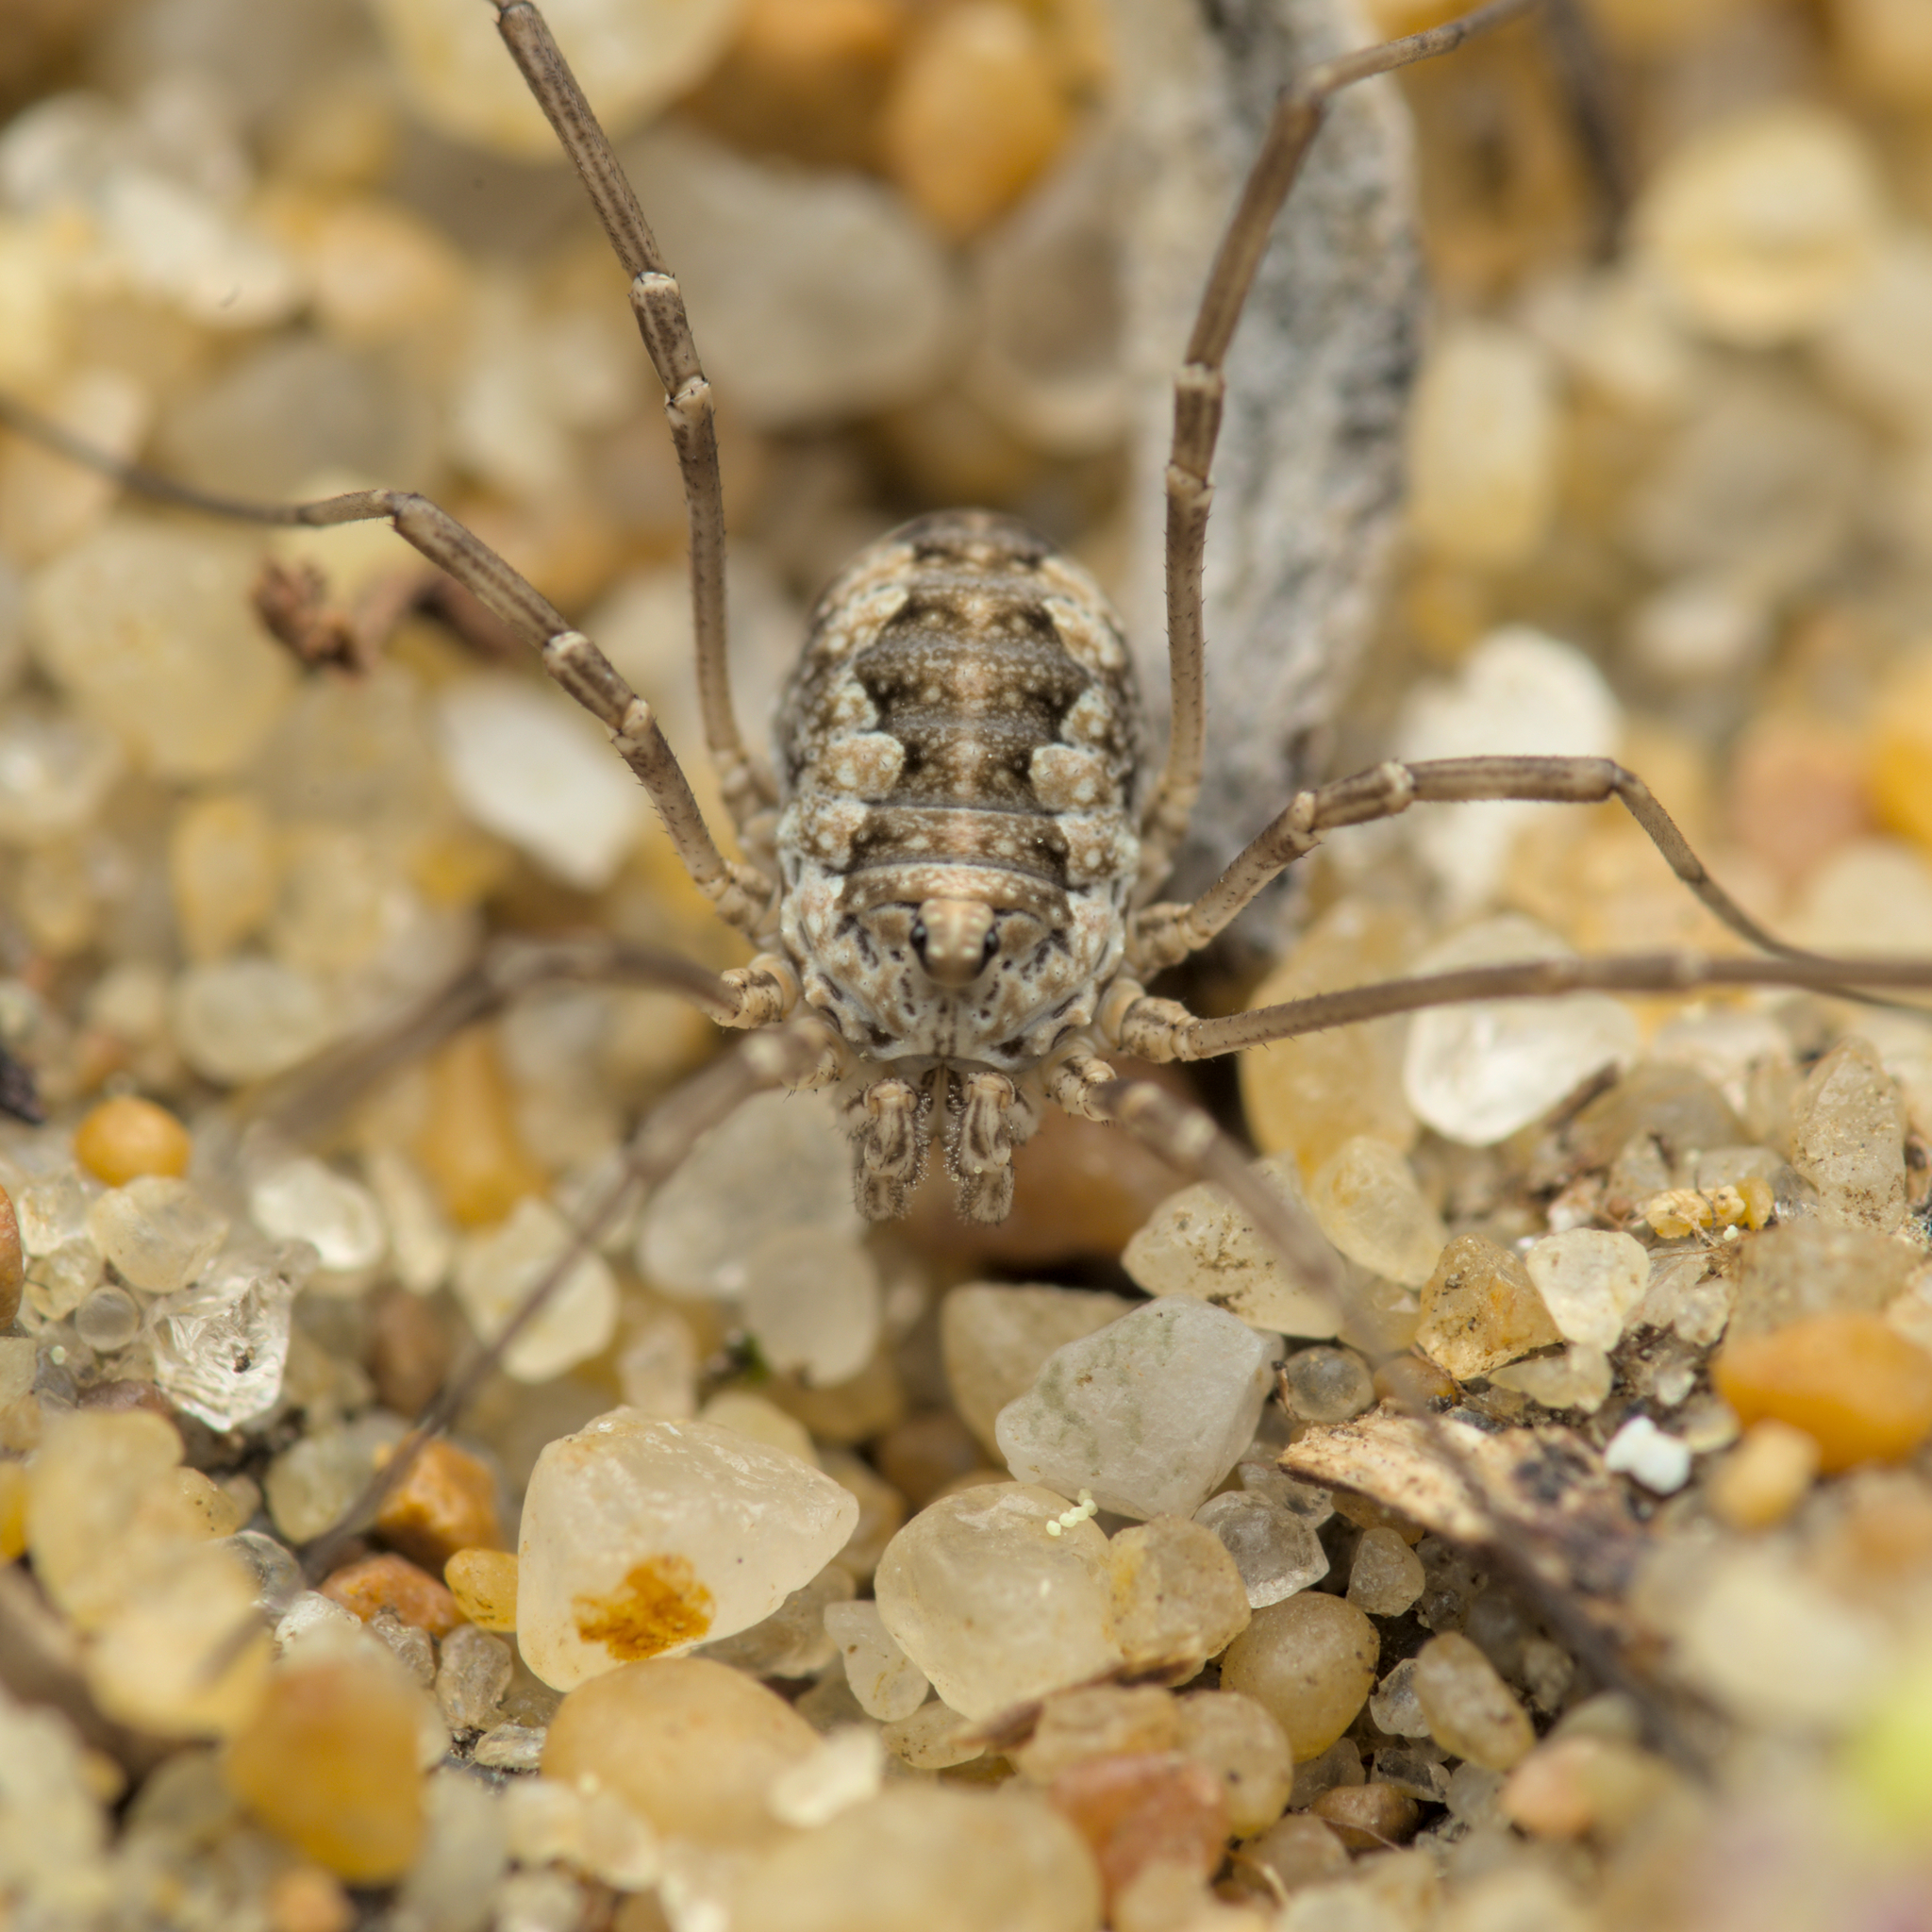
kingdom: Animalia
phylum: Arthropoda
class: Arachnida
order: Opiliones
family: Phalangiidae
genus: Phalangium
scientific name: Phalangium opilio
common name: Daddy longleg
